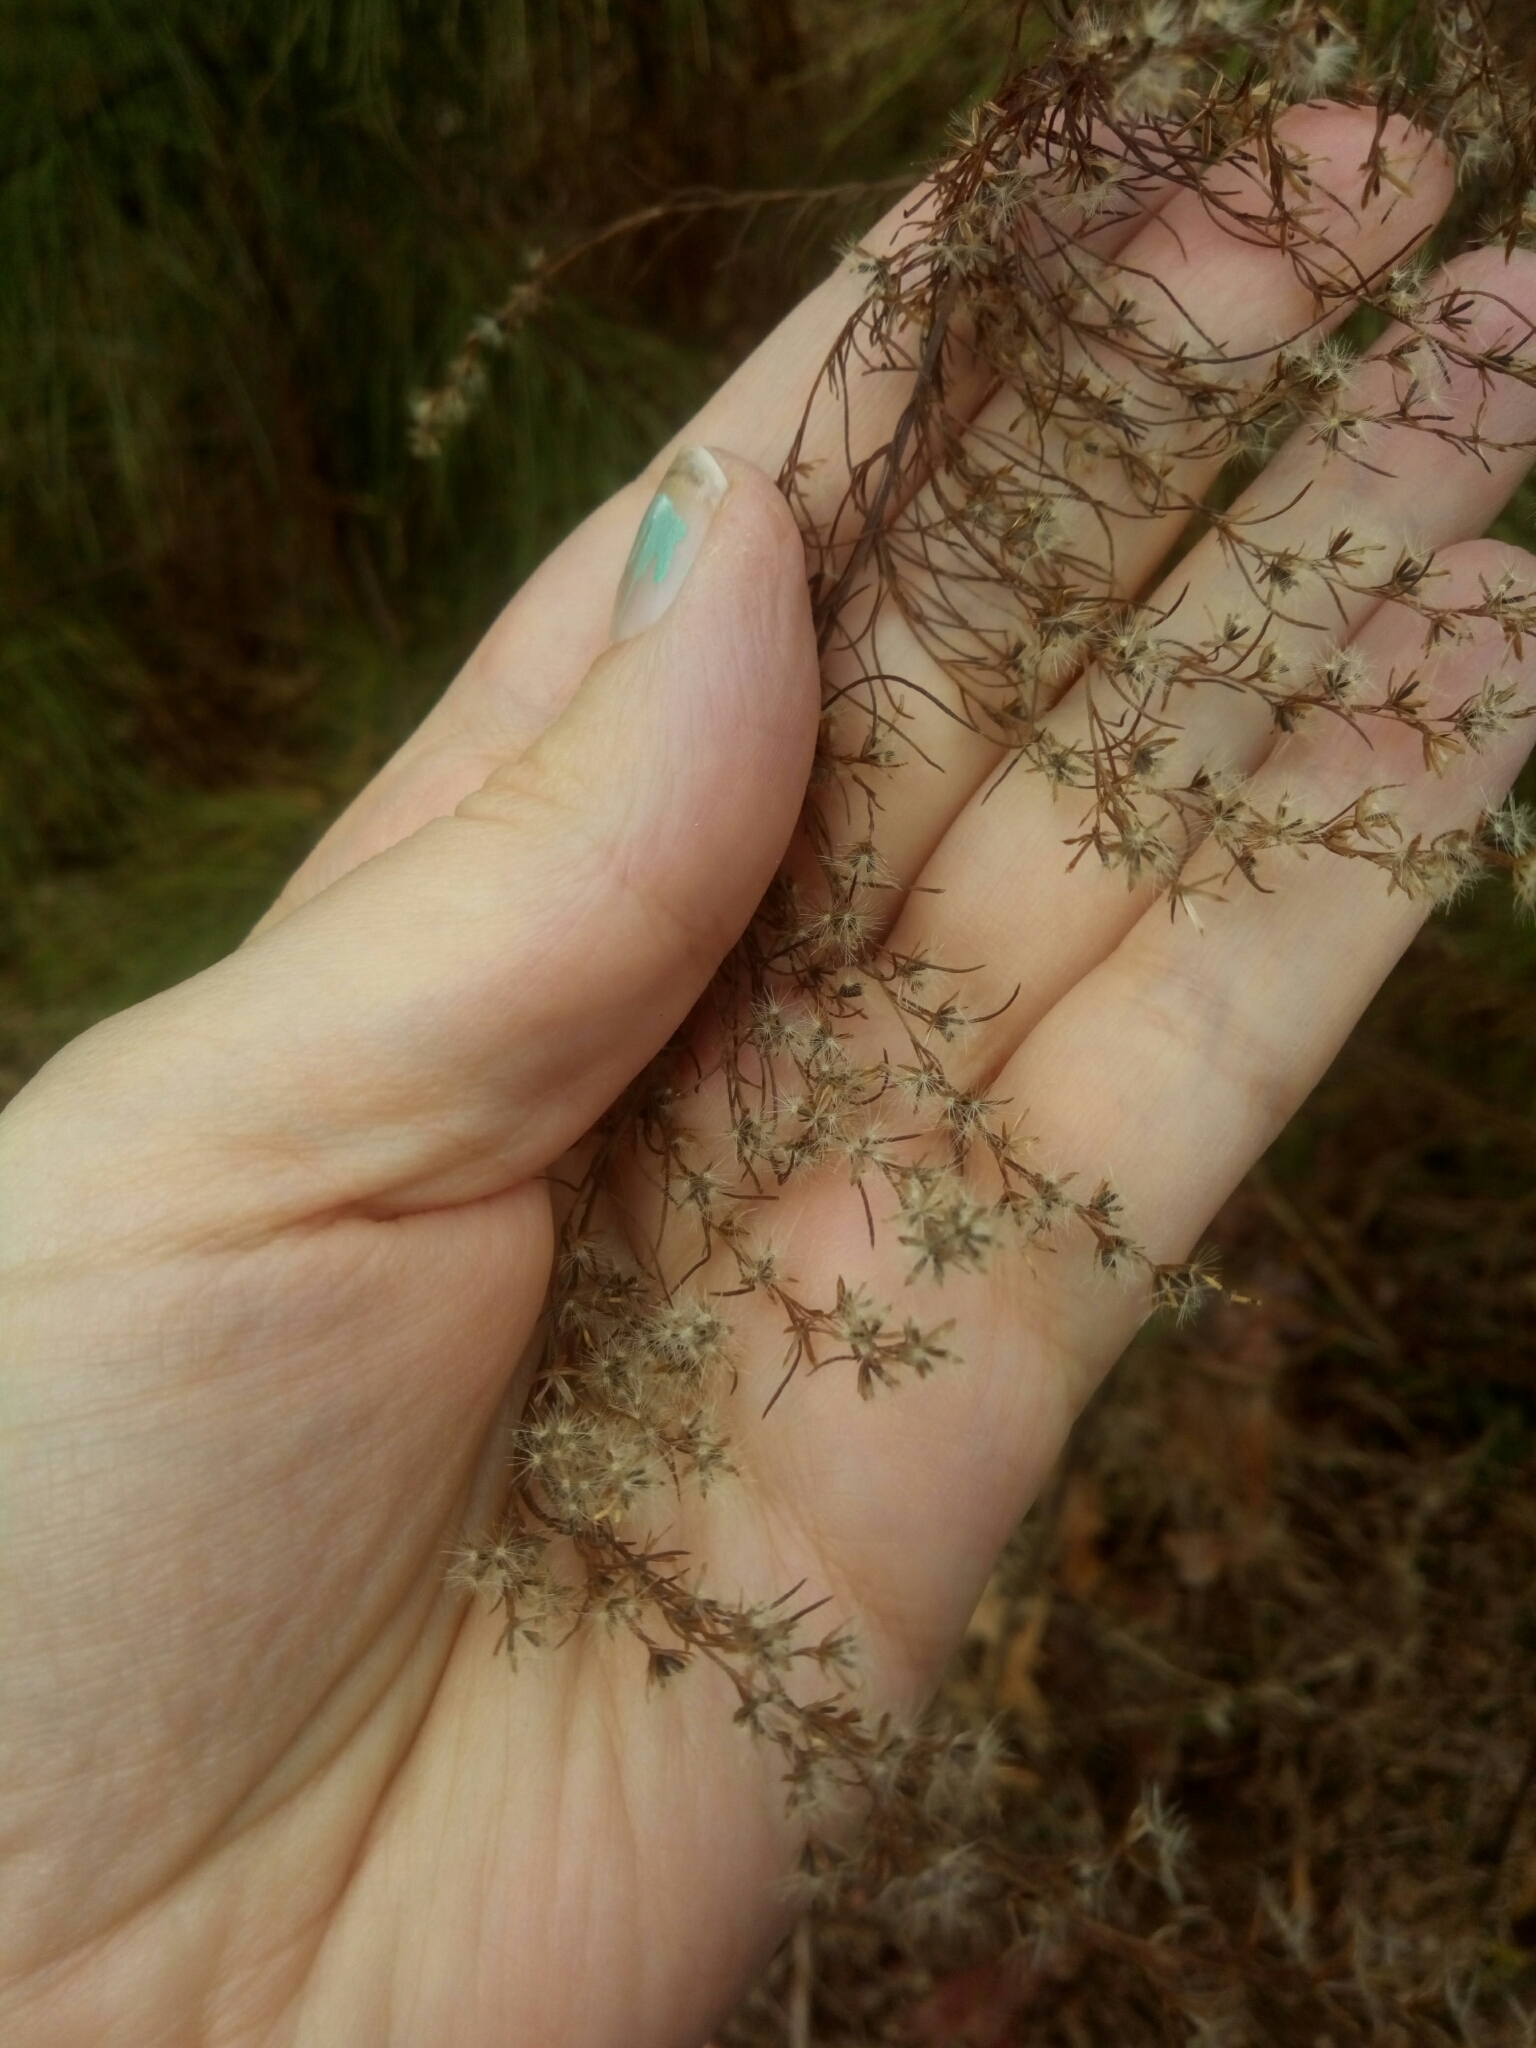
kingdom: Plantae
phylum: Tracheophyta
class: Magnoliopsida
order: Asterales
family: Asteraceae
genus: Eupatorium
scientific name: Eupatorium capillifolium
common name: Dog-fennel
